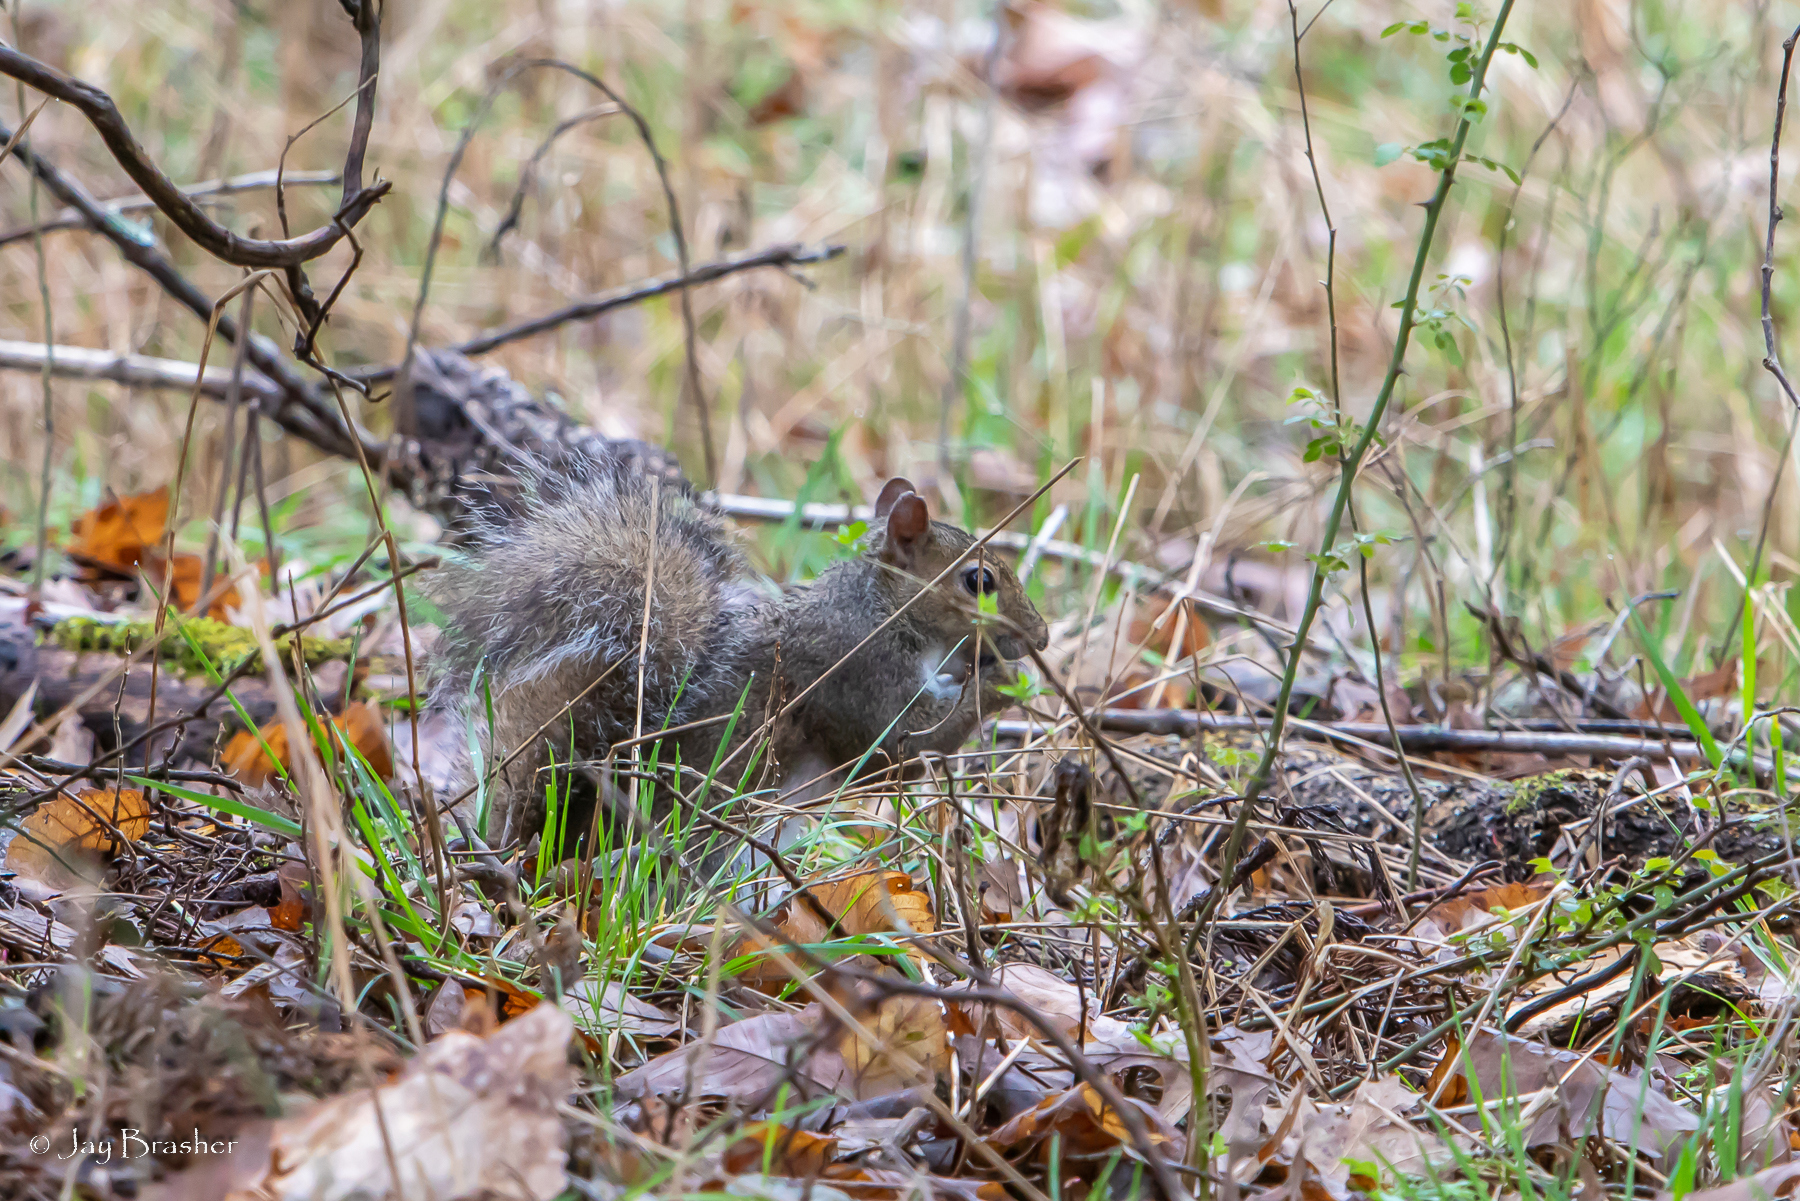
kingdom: Animalia
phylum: Chordata
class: Mammalia
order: Rodentia
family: Sciuridae
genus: Sciurus
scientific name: Sciurus carolinensis
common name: Eastern gray squirrel
